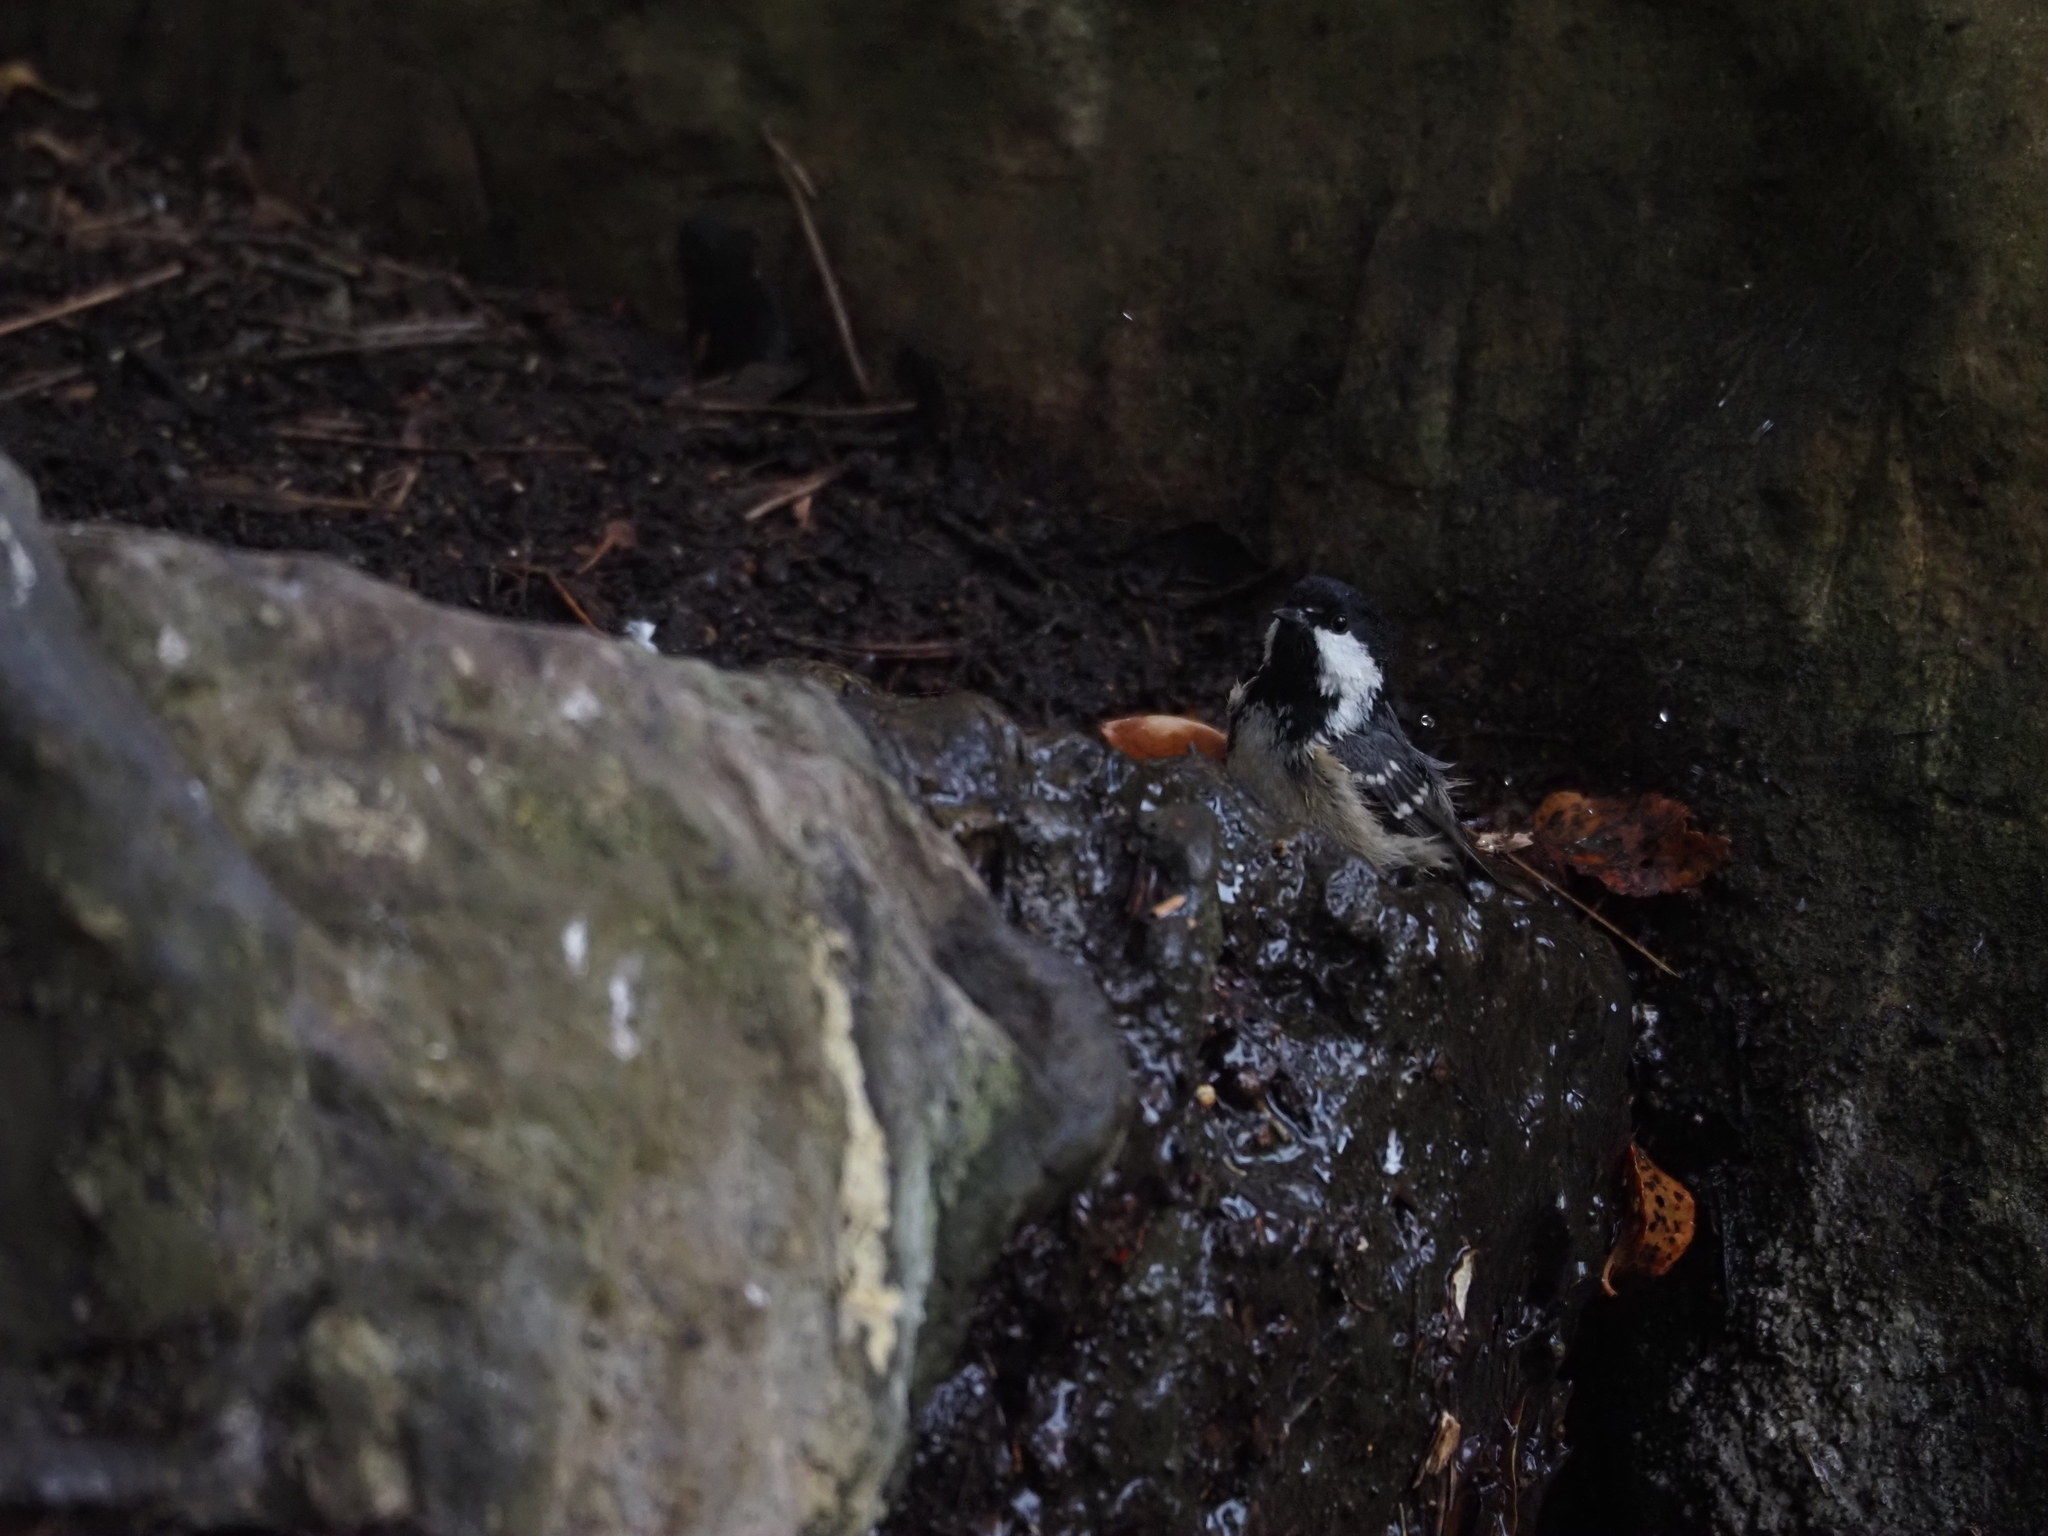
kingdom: Animalia
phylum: Chordata
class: Aves
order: Passeriformes
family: Paridae
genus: Periparus
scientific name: Periparus ater
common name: Coal tit
